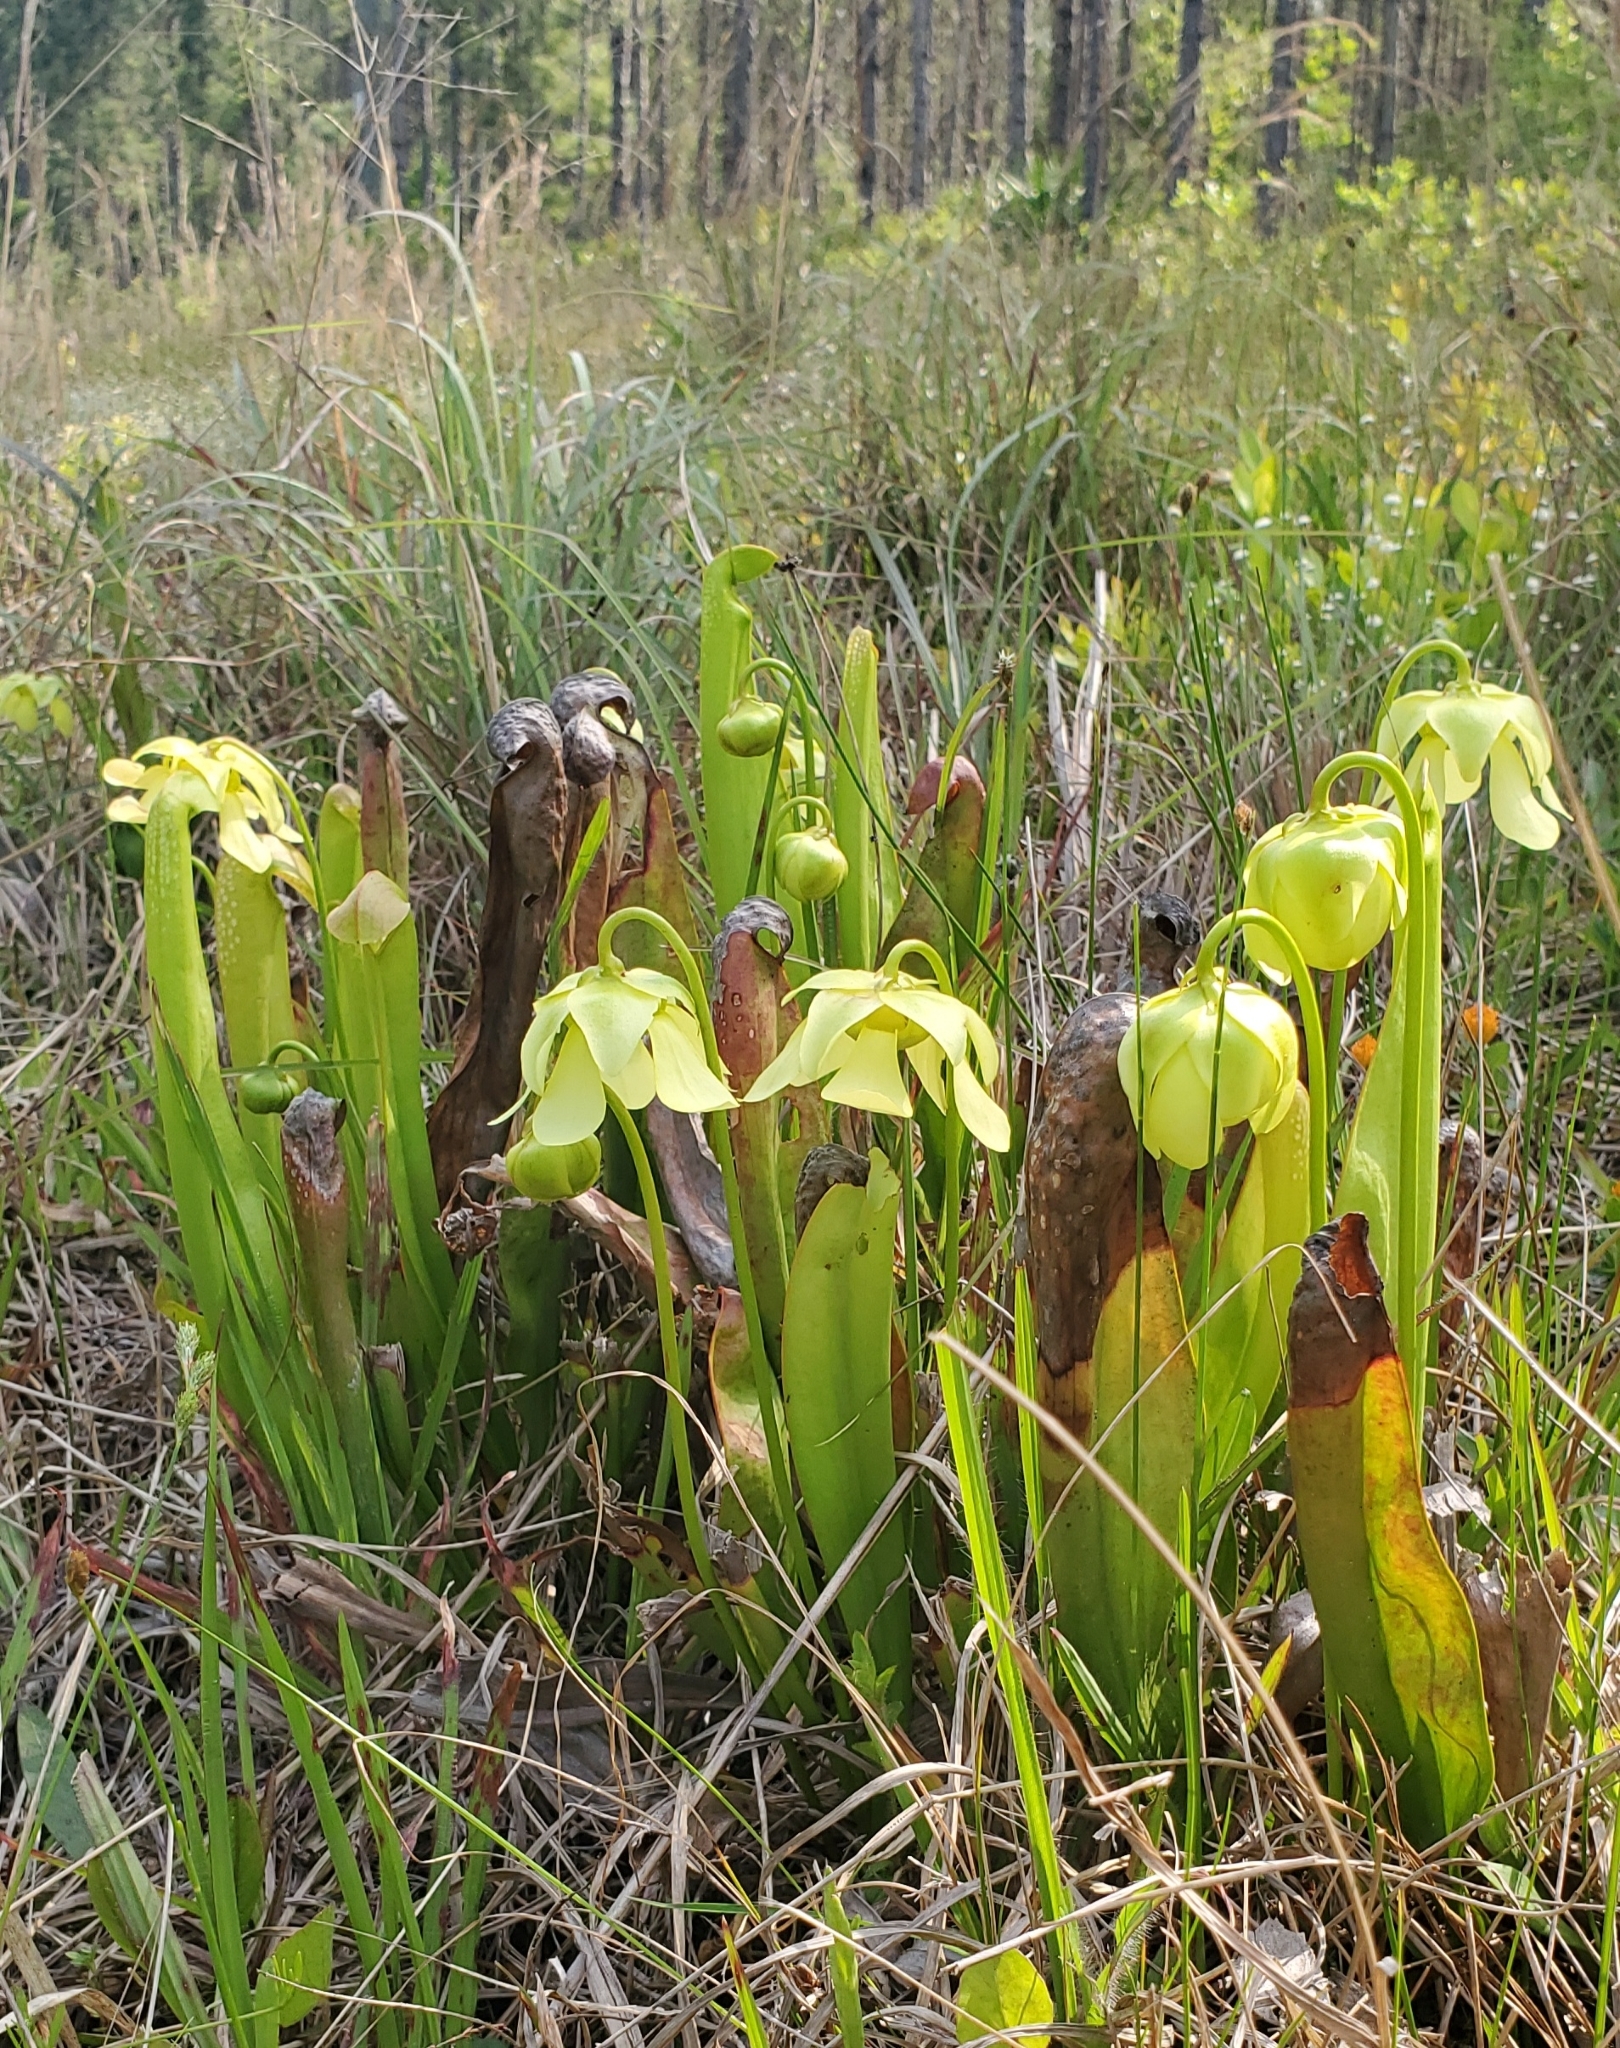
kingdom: Plantae
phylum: Tracheophyta
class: Magnoliopsida
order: Ericales
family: Sarraceniaceae
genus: Sarracenia
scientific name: Sarracenia minor
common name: Rainhat-trumpet
